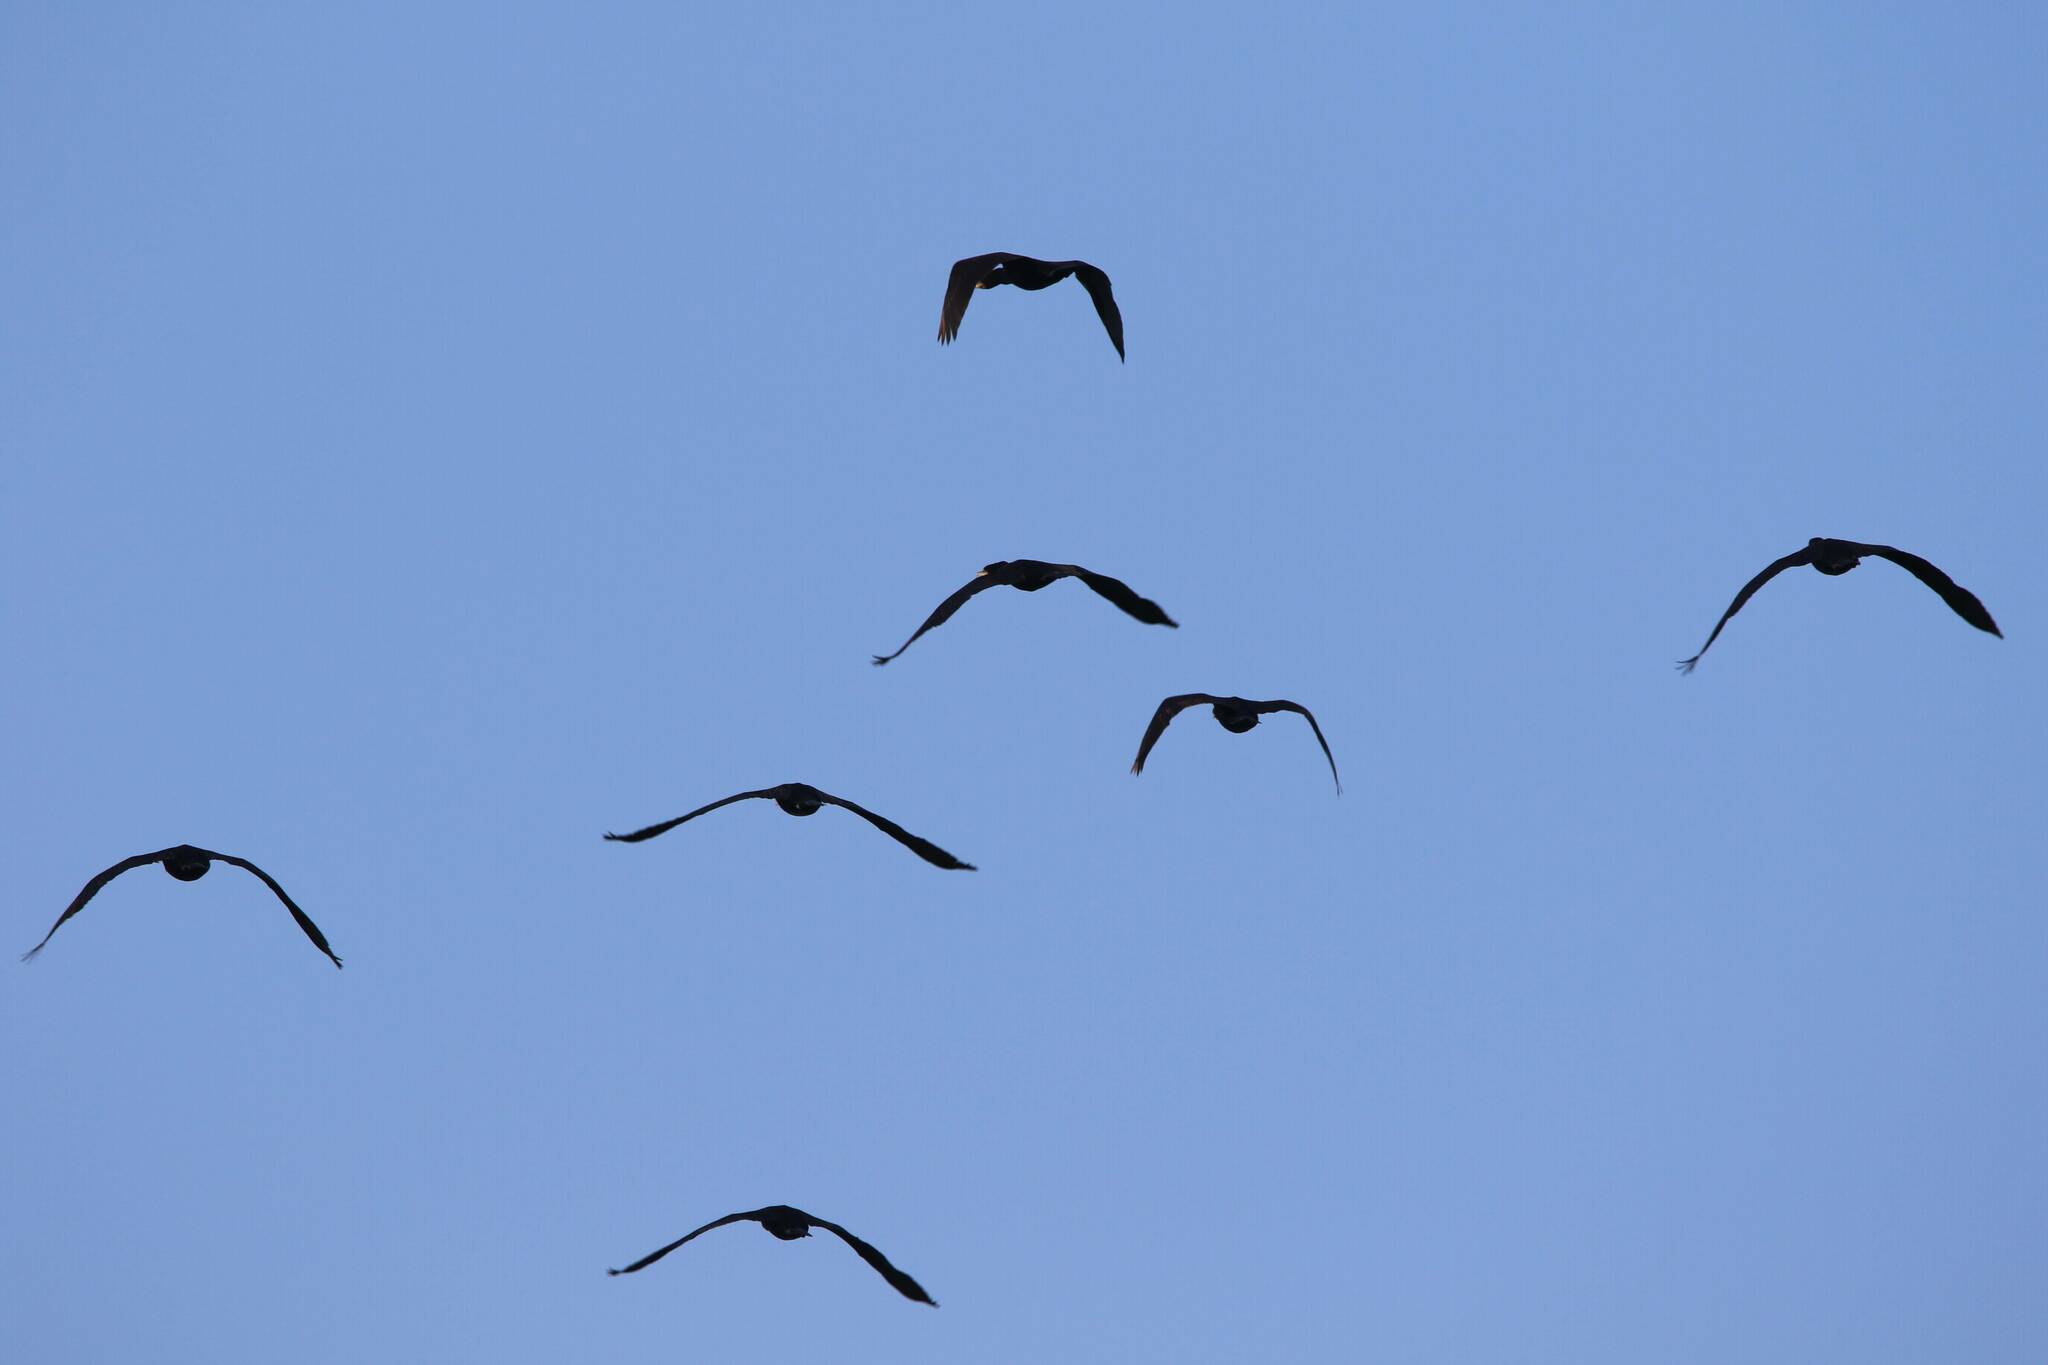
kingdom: Animalia
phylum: Chordata
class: Aves
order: Suliformes
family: Phalacrocoracidae
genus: Phalacrocorax
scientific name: Phalacrocorax carbo
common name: Great cormorant
